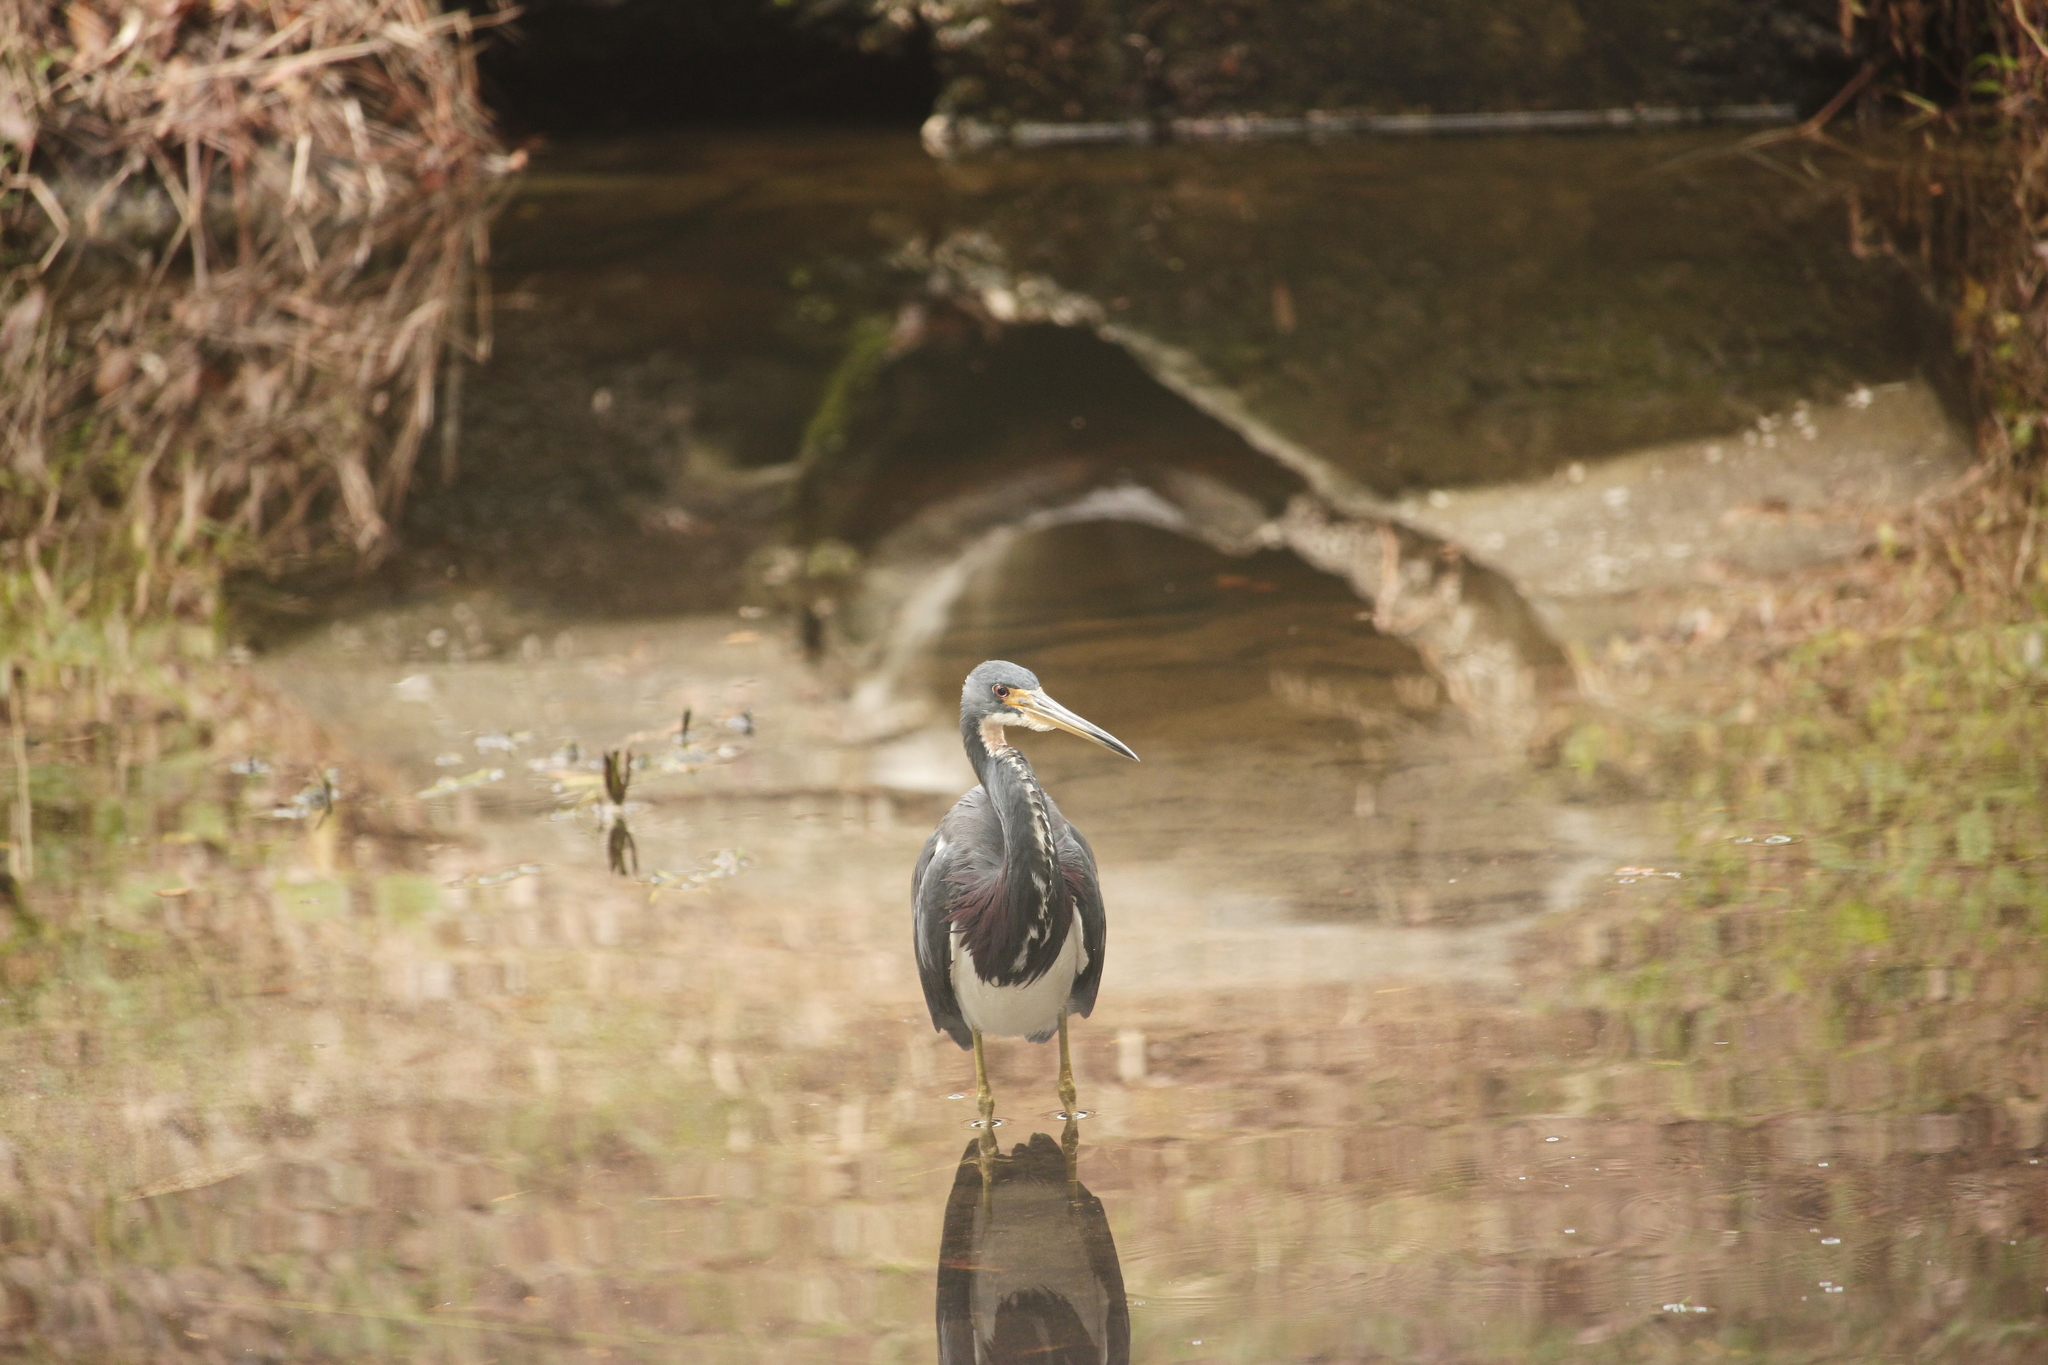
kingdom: Animalia
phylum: Chordata
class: Aves
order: Pelecaniformes
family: Ardeidae
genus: Egretta
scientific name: Egretta tricolor
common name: Tricolored heron
